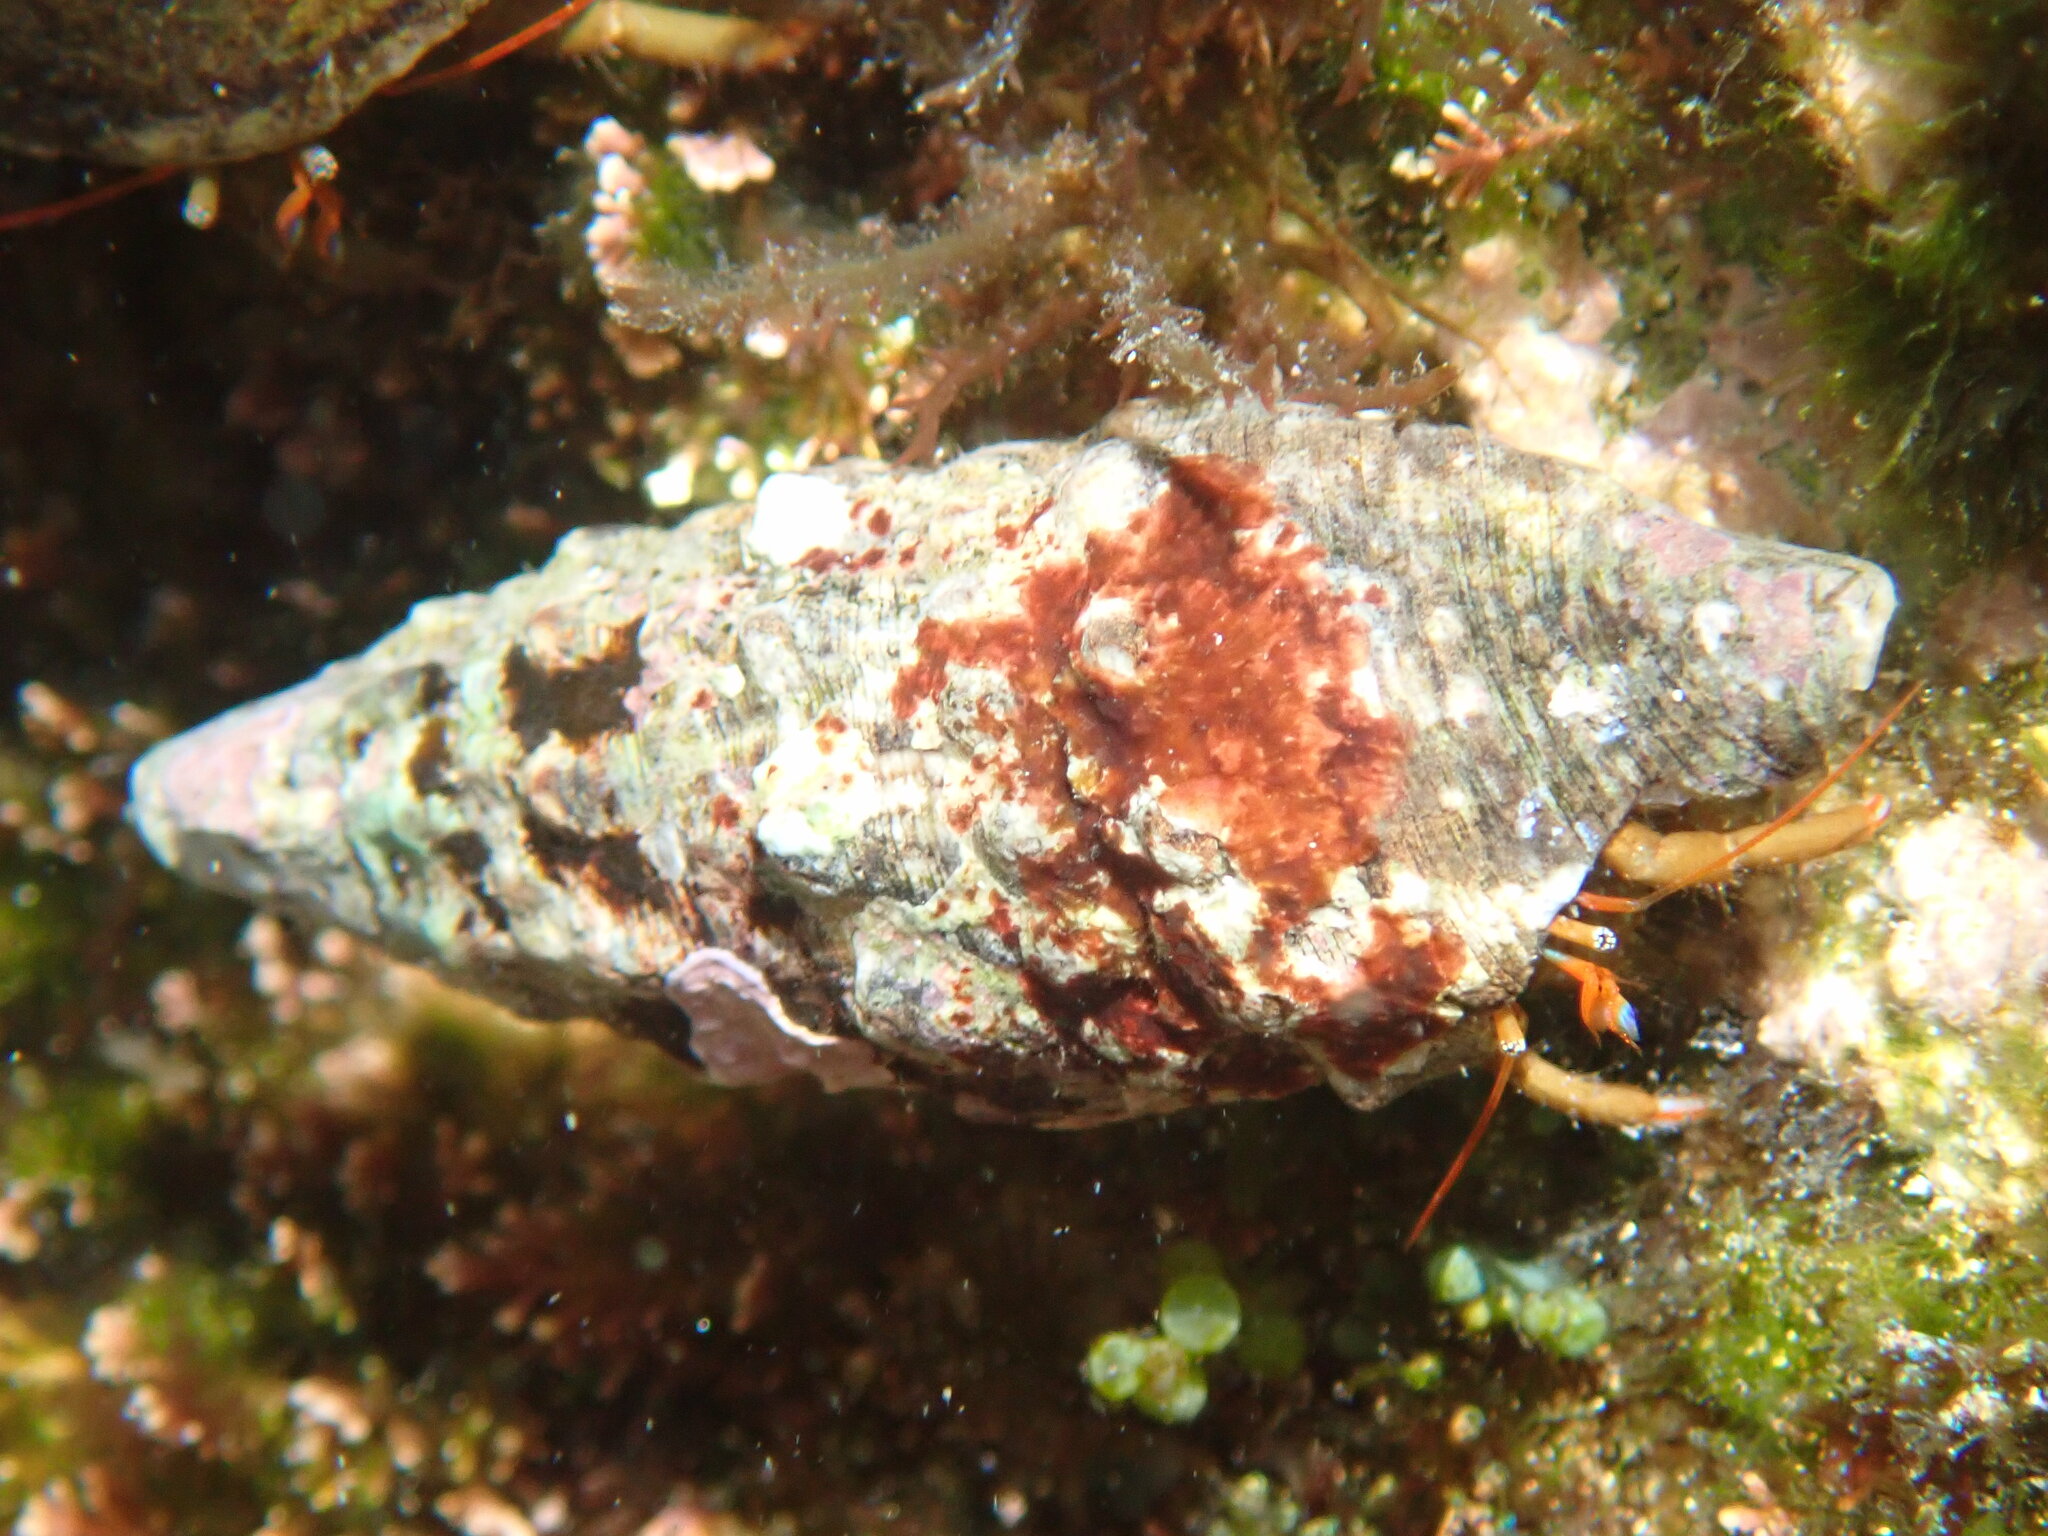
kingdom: Animalia
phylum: Arthropoda
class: Malacostraca
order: Decapoda
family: Diogenidae
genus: Clibanarius
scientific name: Clibanarius erythropus
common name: Hermit crab
